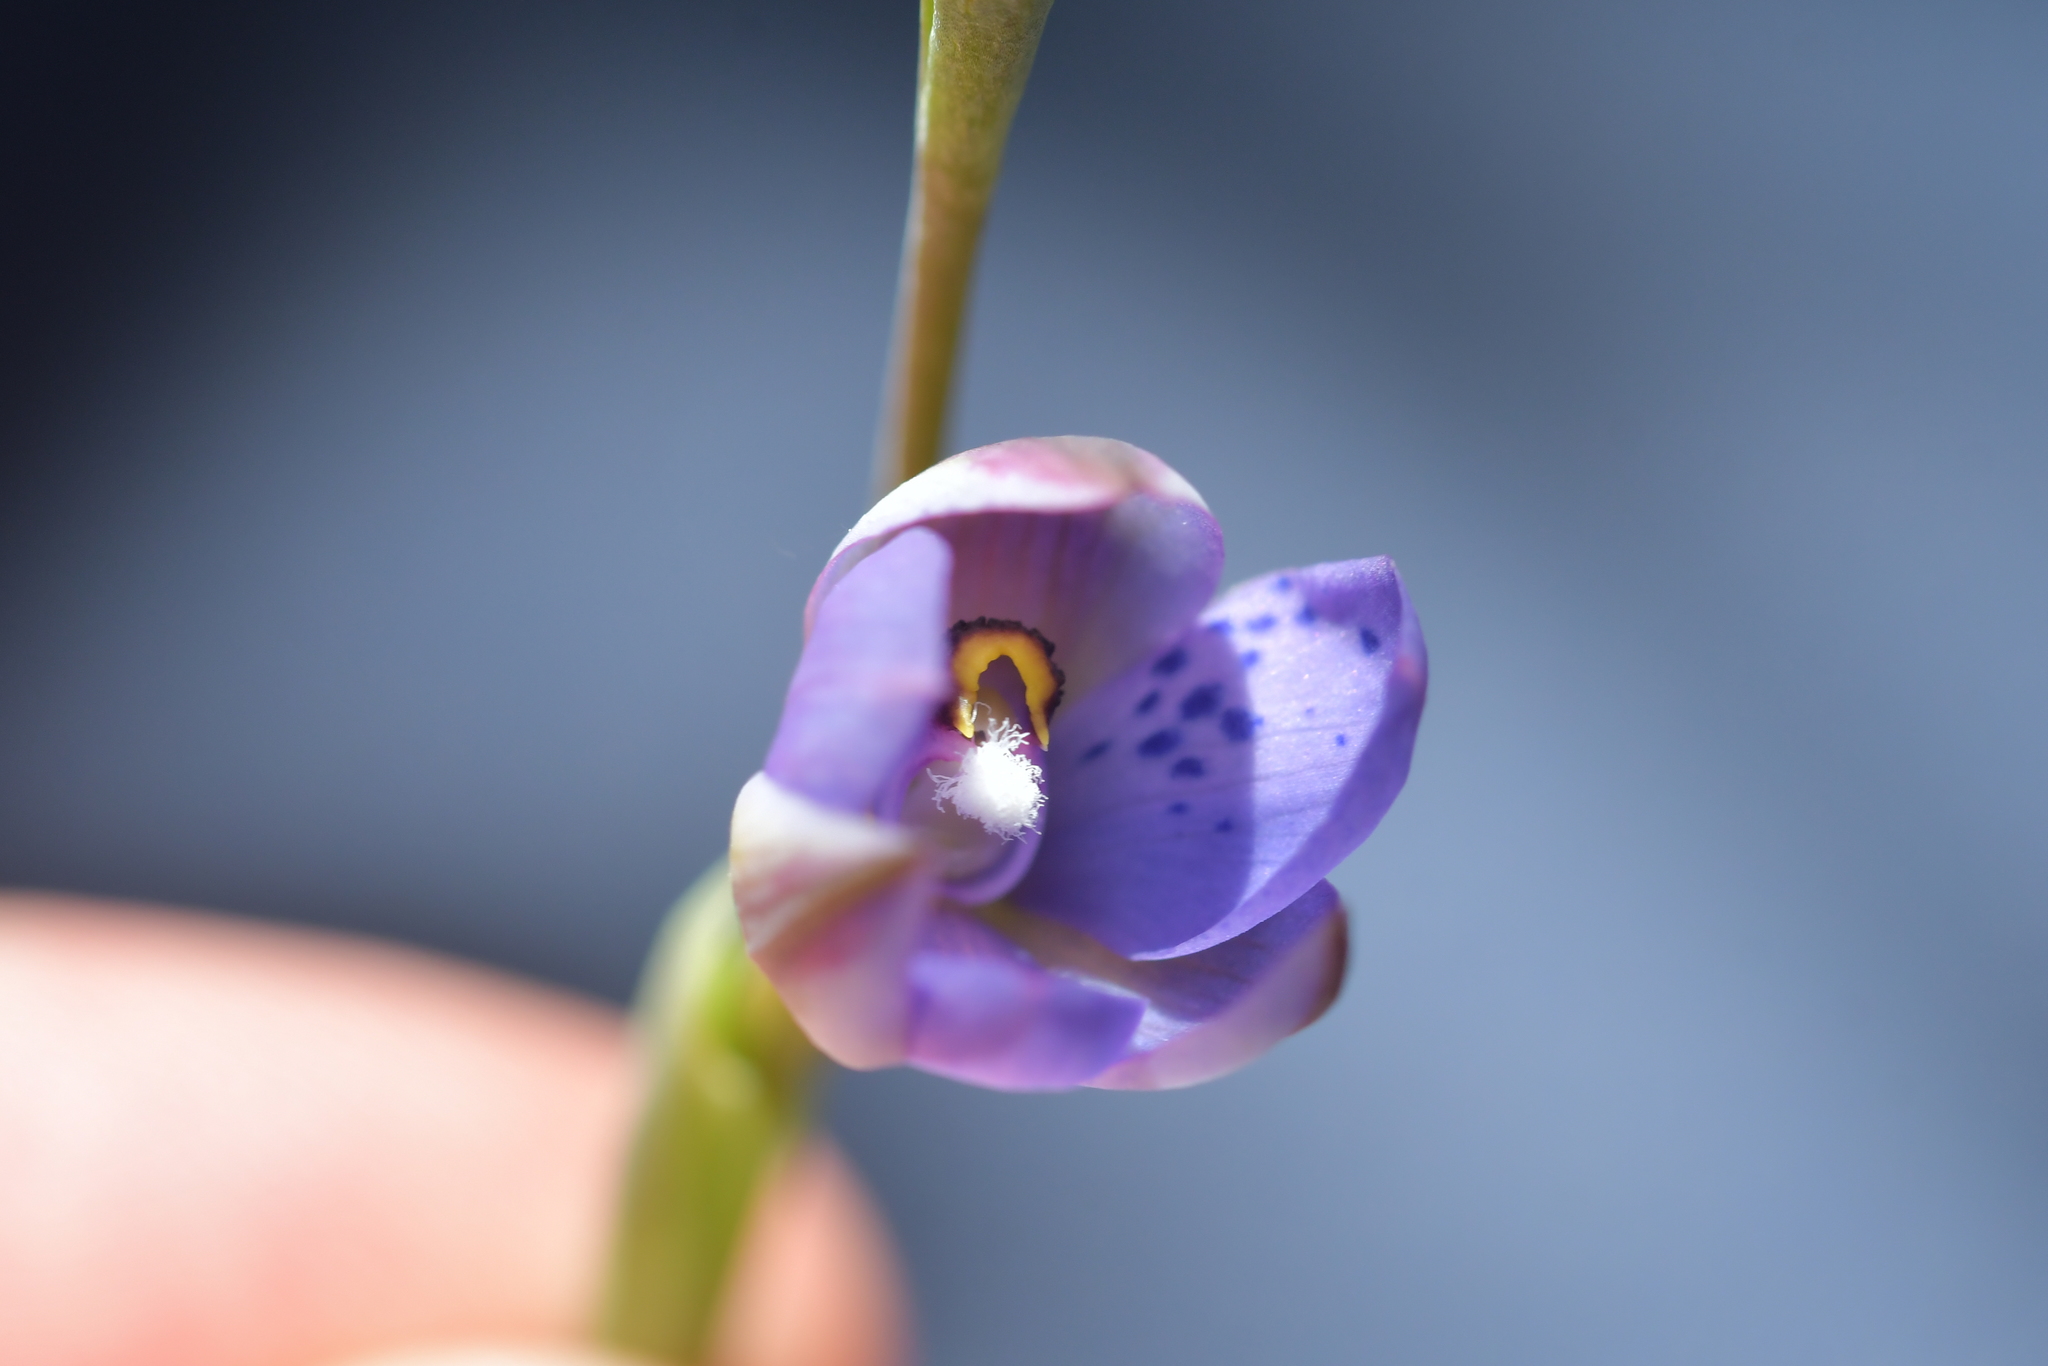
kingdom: Plantae
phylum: Tracheophyta
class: Liliopsida
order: Asparagales
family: Orchidaceae
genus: Thelymitra
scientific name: Thelymitra nervosa
